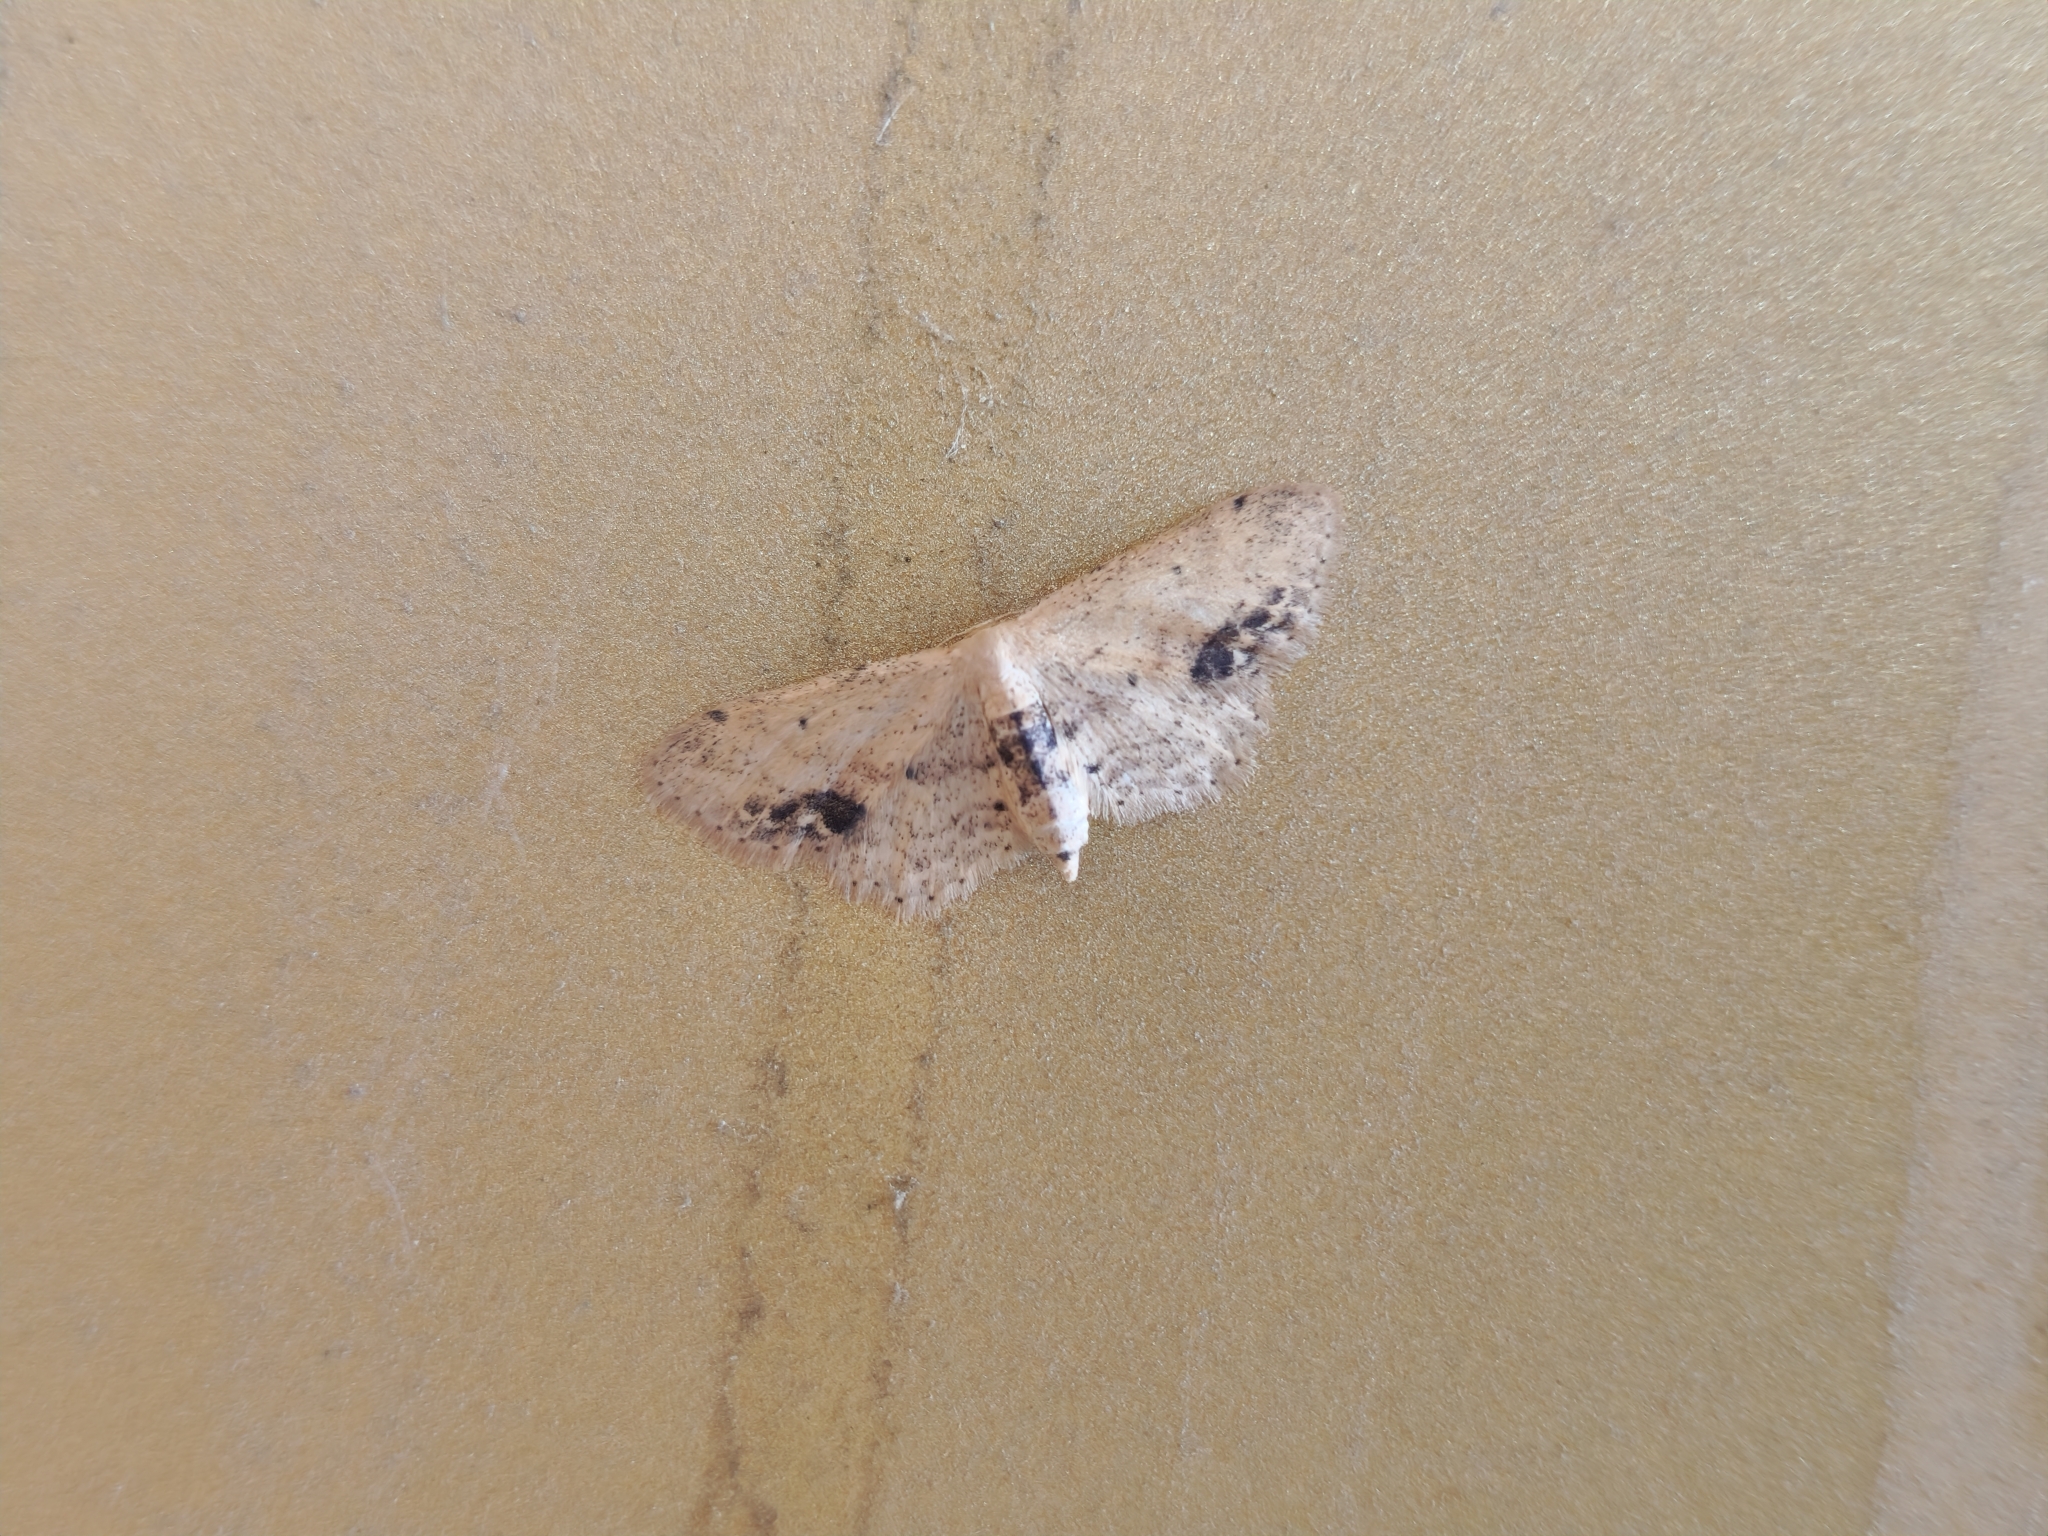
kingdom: Animalia
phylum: Arthropoda
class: Insecta
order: Lepidoptera
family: Geometridae
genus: Idaea
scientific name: Idaea dimidiata
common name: Single-dotted wave
